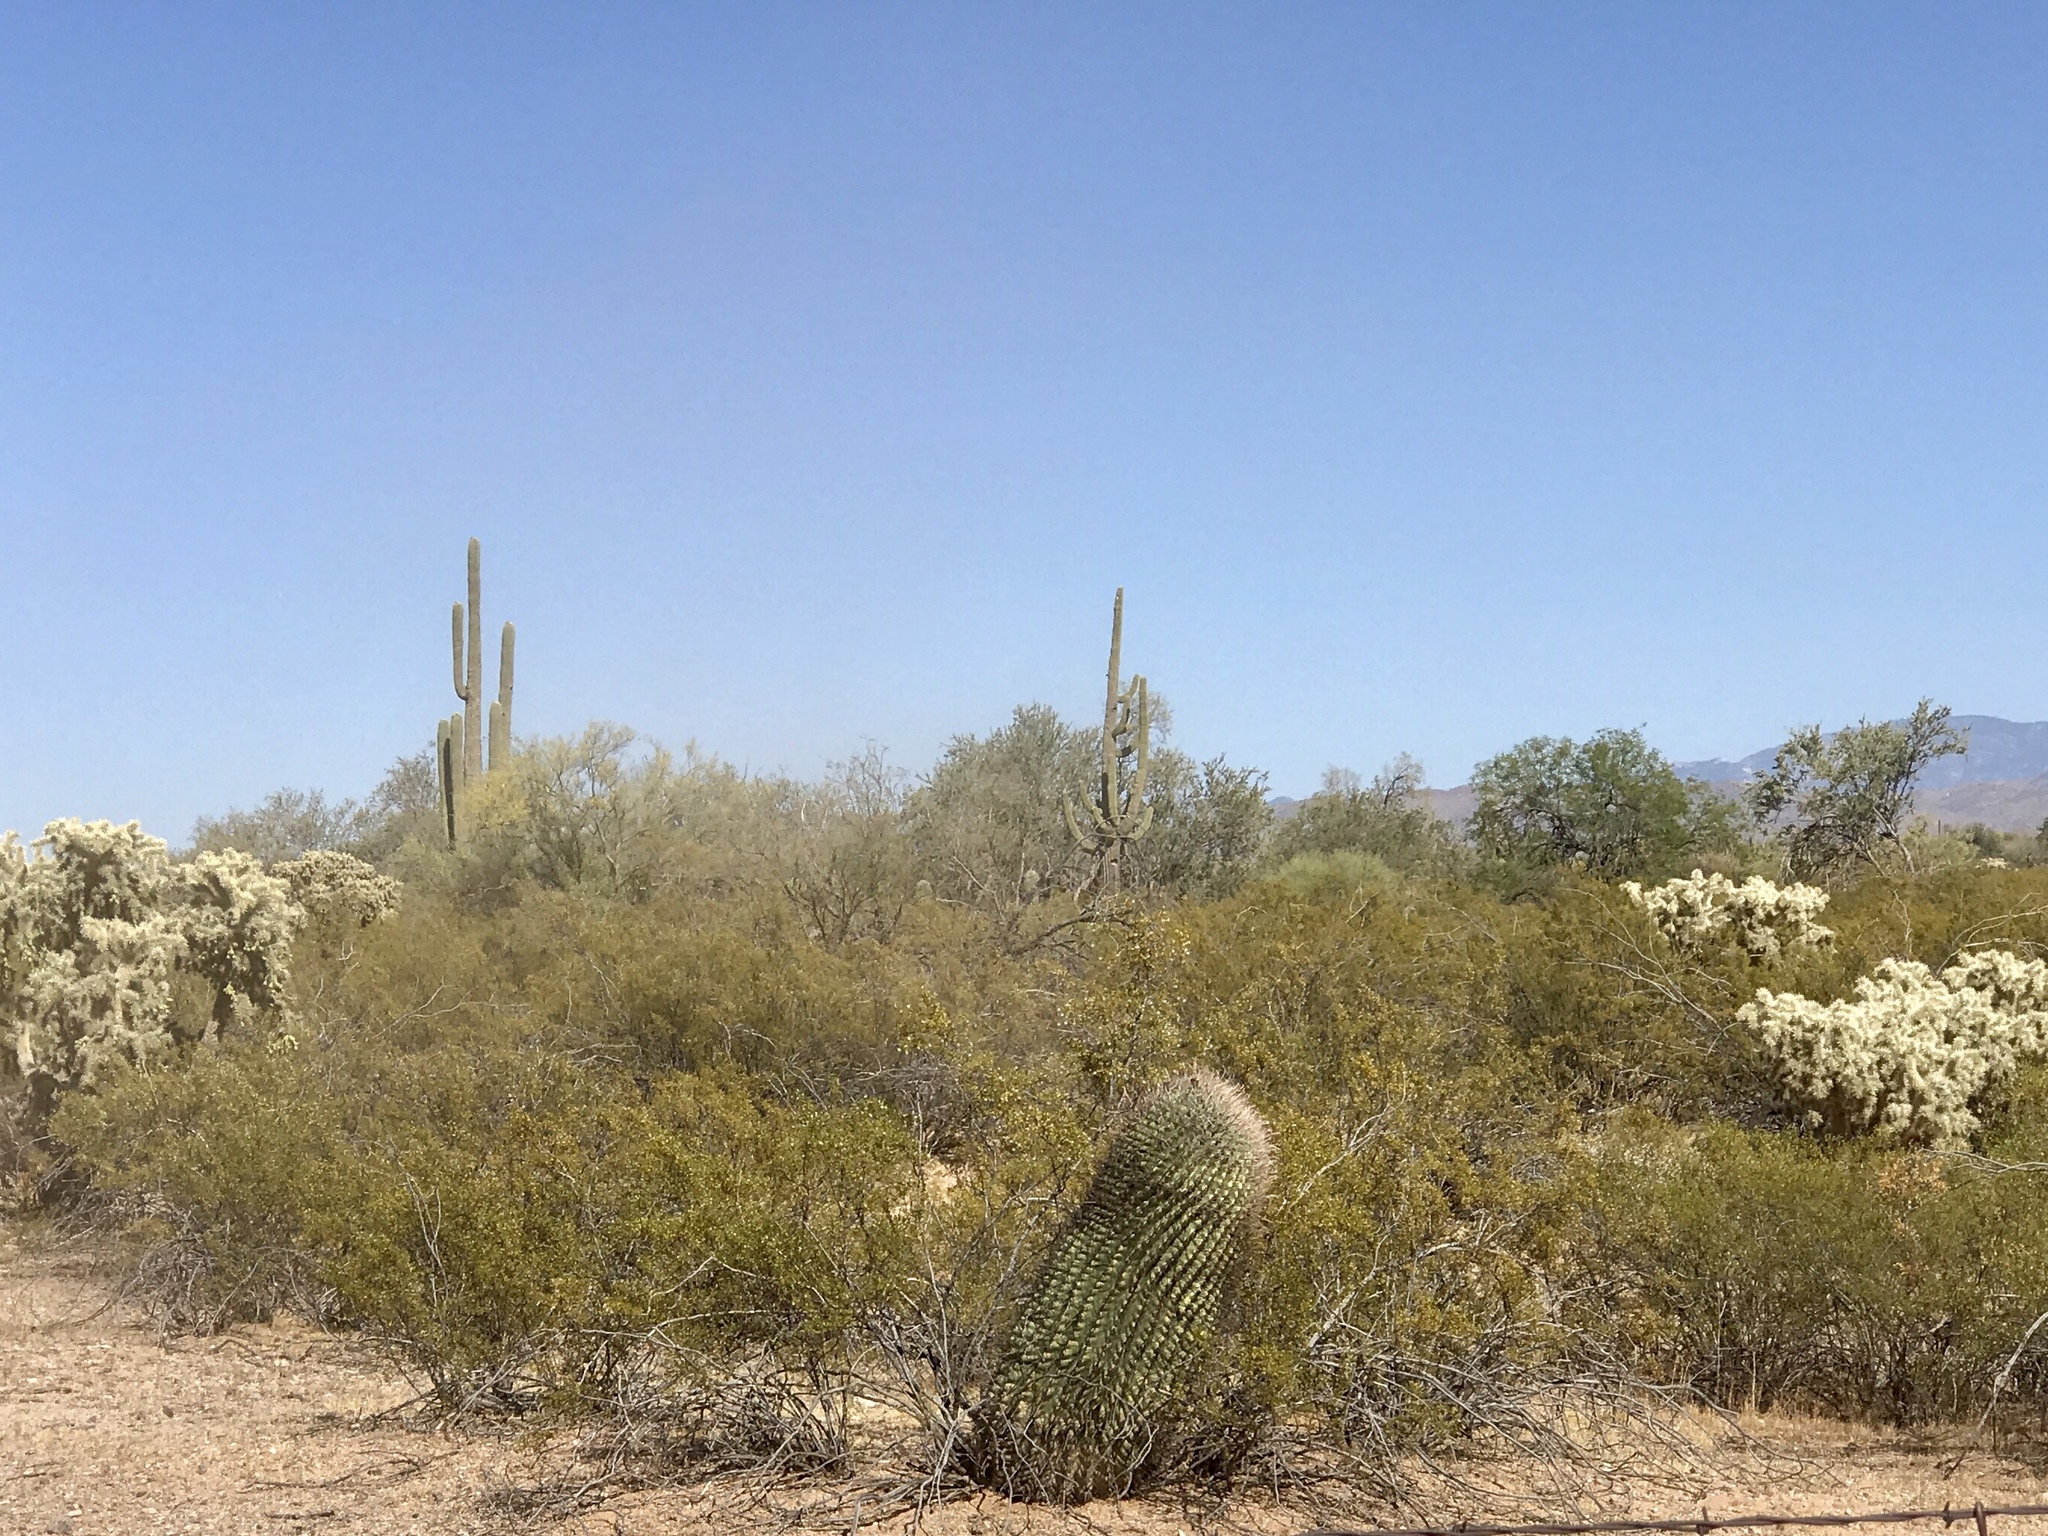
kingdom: Plantae
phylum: Tracheophyta
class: Magnoliopsida
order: Zygophyllales
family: Zygophyllaceae
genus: Larrea
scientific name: Larrea tridentata
